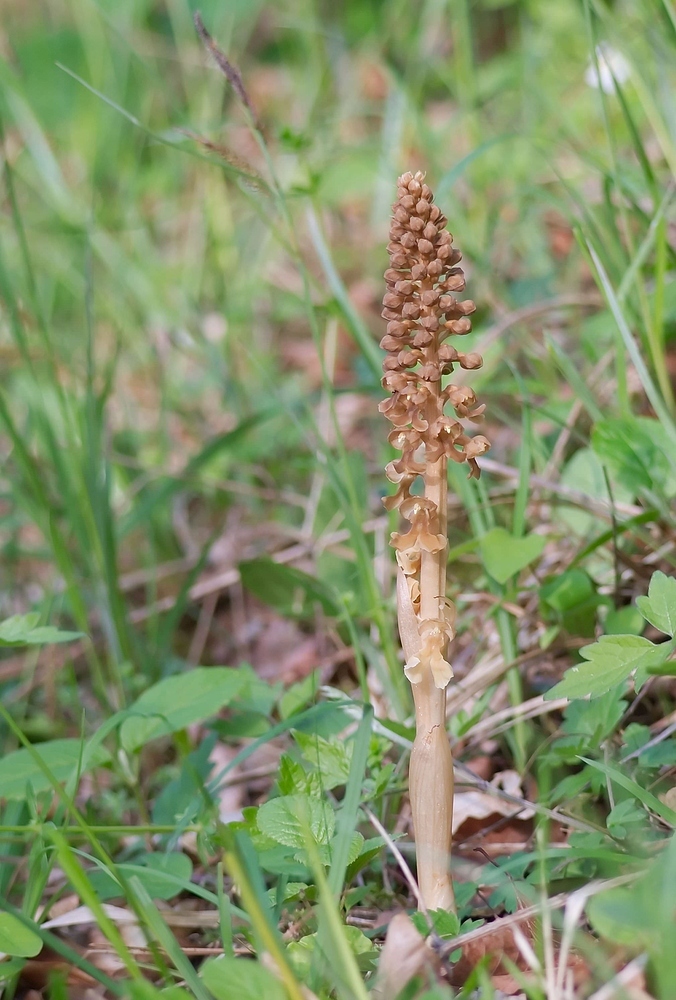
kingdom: Plantae
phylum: Tracheophyta
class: Liliopsida
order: Asparagales
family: Orchidaceae
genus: Neottia
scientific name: Neottia nidus-avis
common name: Bird's-nest orchid
